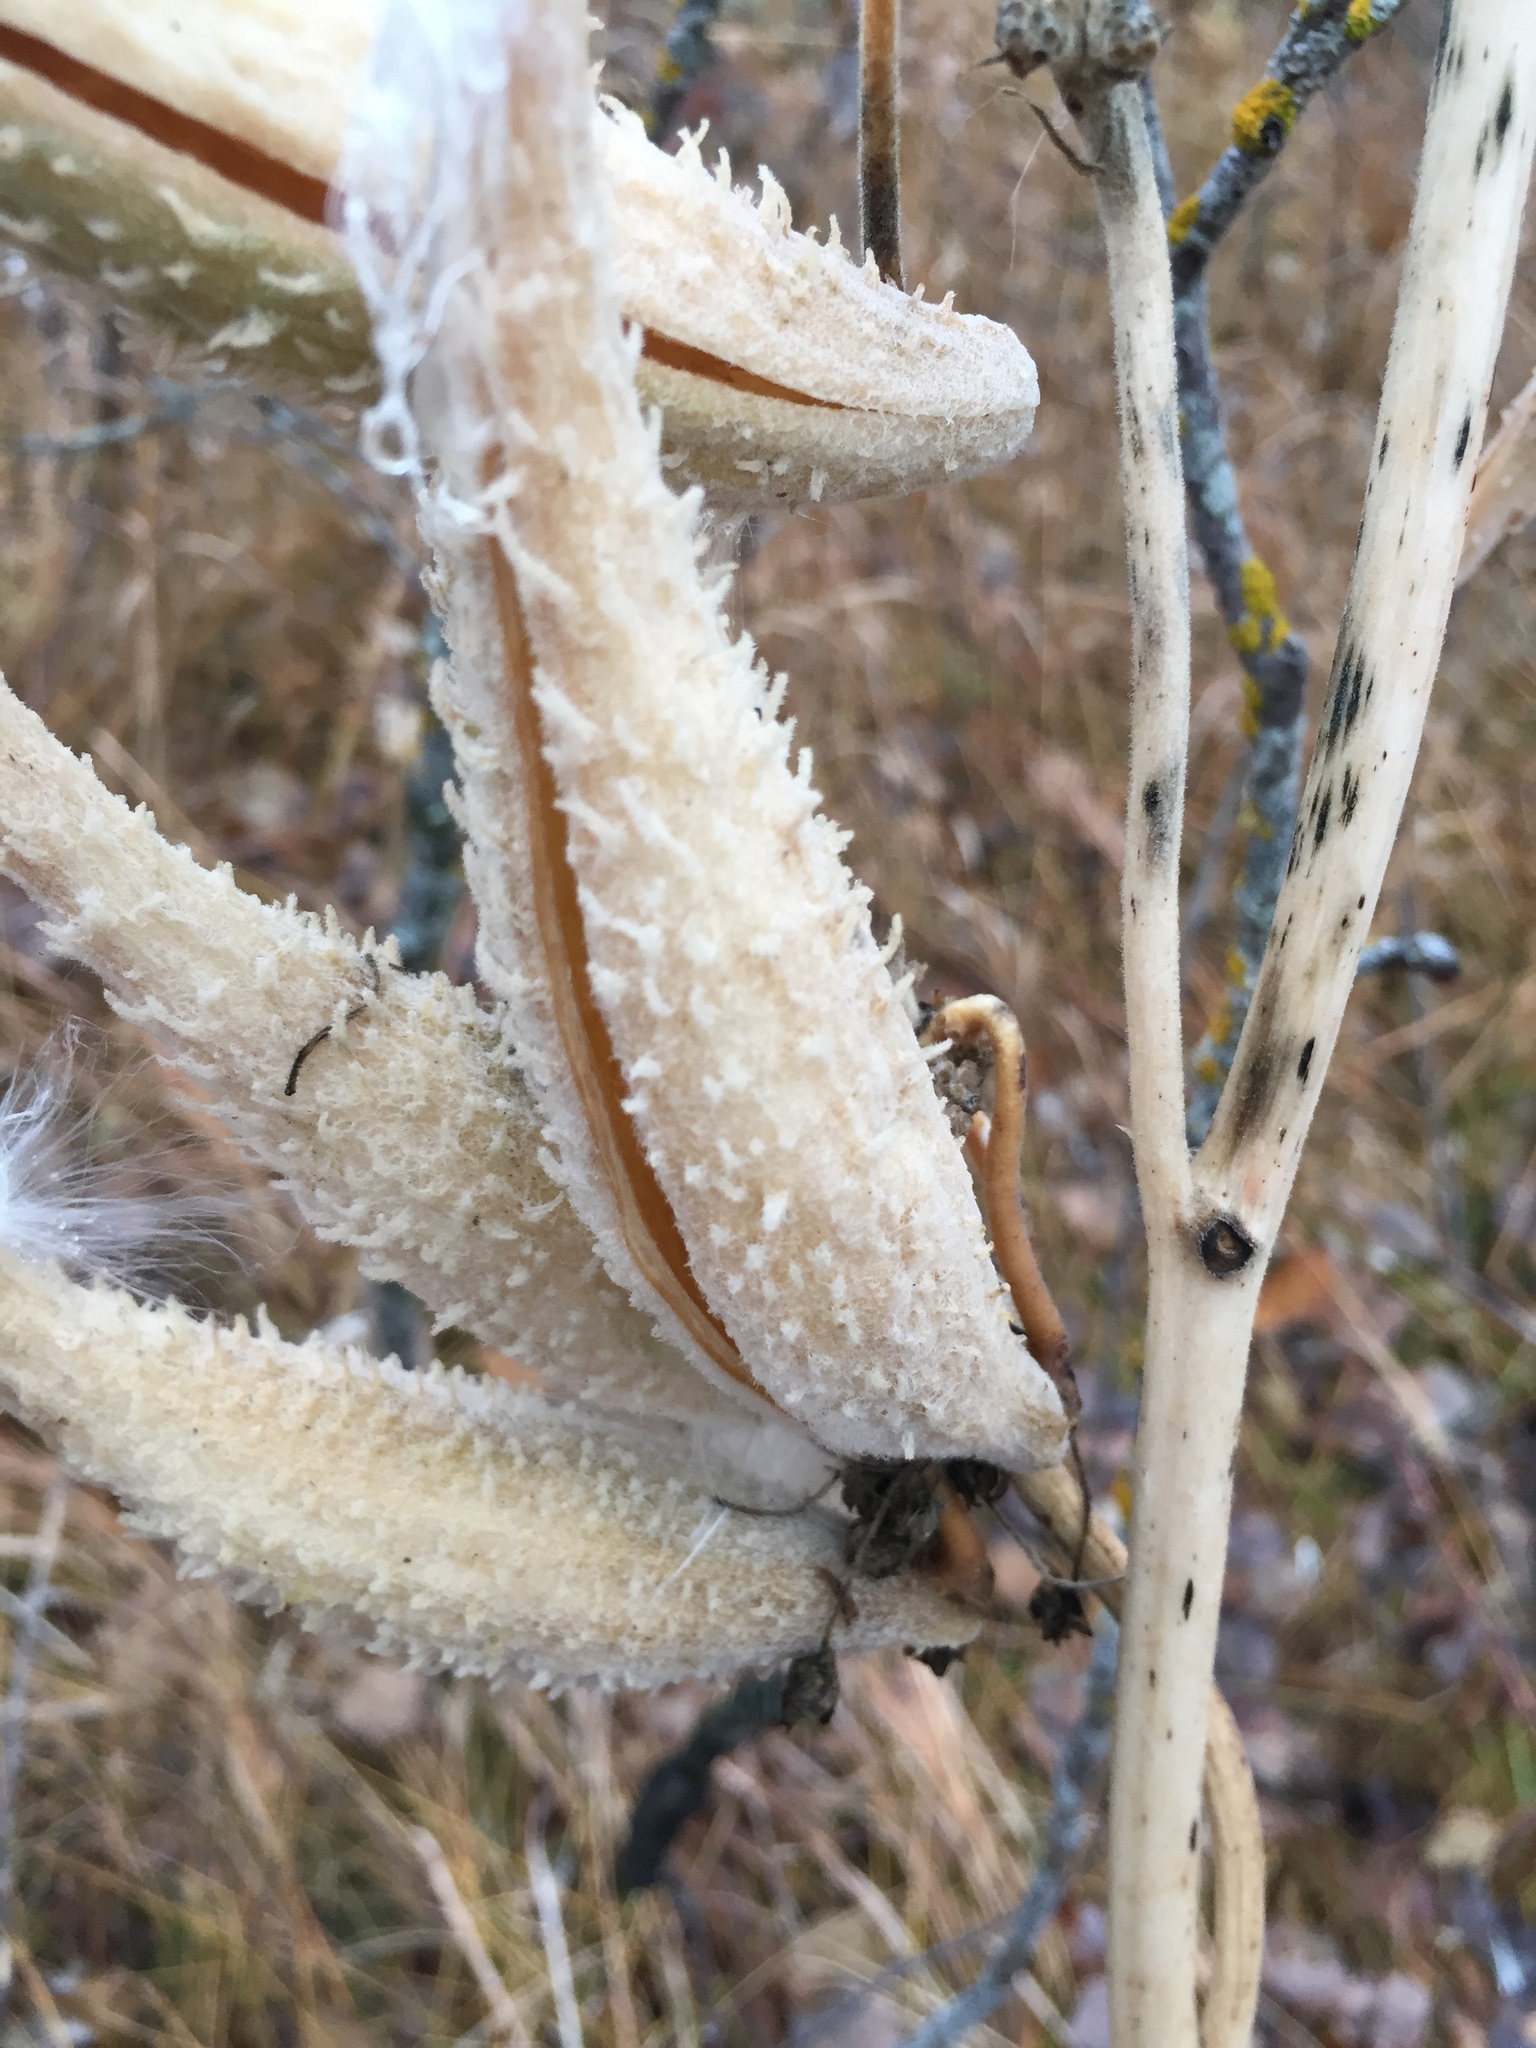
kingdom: Plantae
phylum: Tracheophyta
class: Magnoliopsida
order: Gentianales
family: Apocynaceae
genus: Asclepias
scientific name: Asclepias syriaca
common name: Common milkweed
